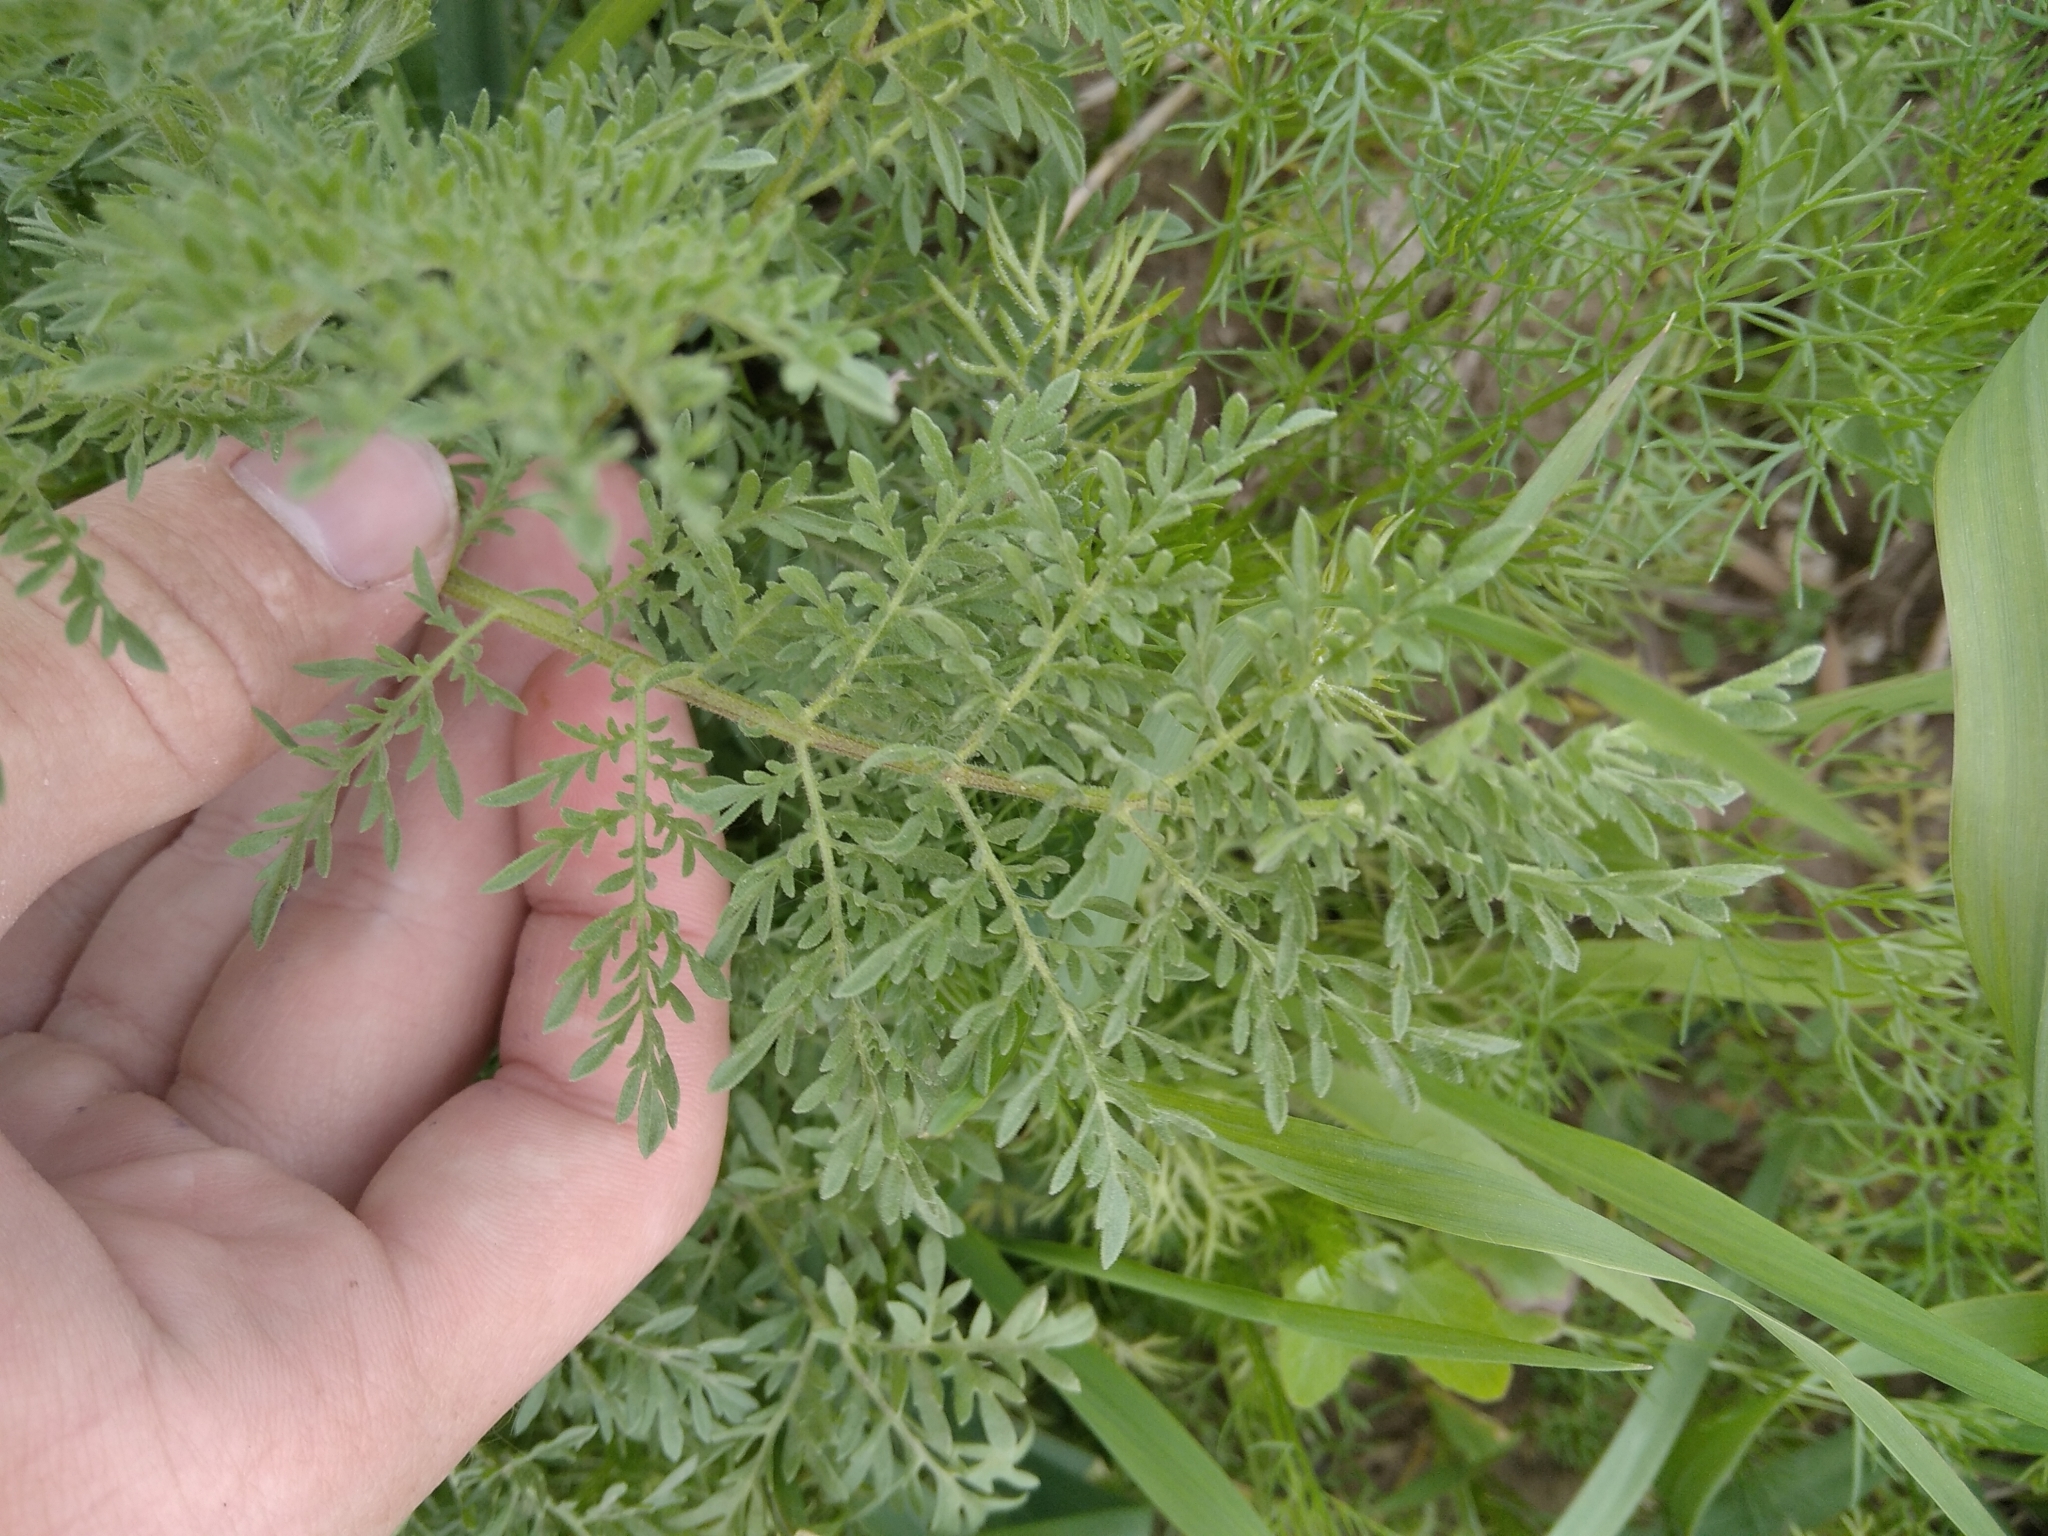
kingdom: Plantae
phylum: Tracheophyta
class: Magnoliopsida
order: Brassicales
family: Brassicaceae
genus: Descurainia
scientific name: Descurainia sophia
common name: Flixweed
